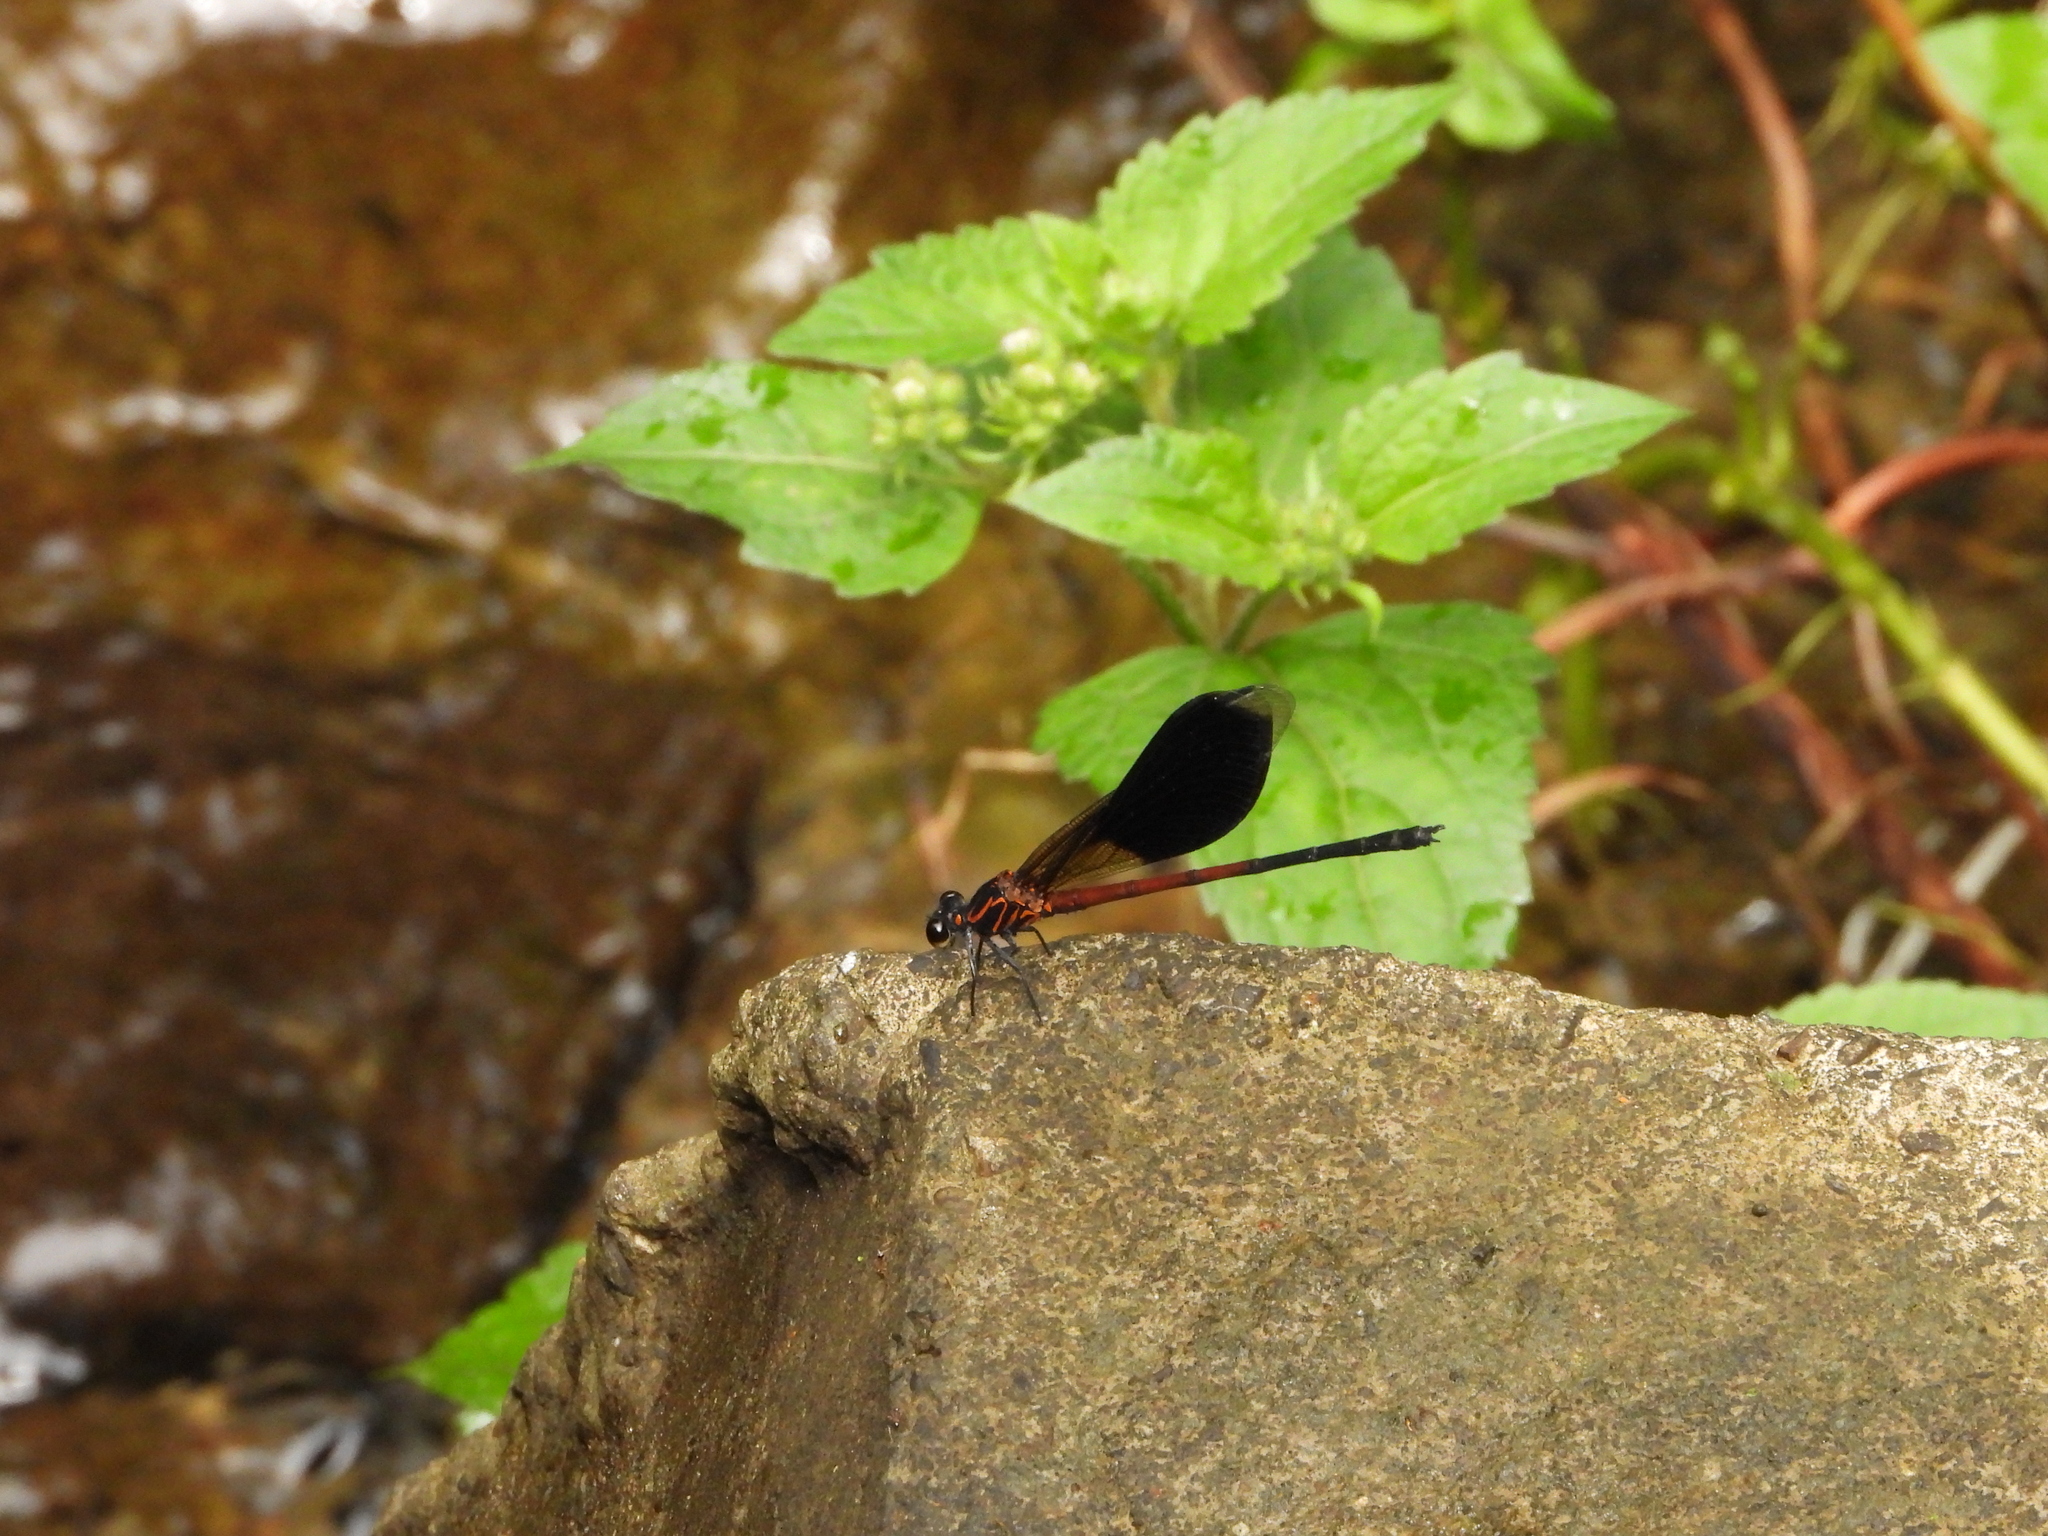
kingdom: Animalia
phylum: Arthropoda
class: Insecta
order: Odonata
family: Euphaeidae
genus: Euphaea
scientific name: Euphaea formosa
